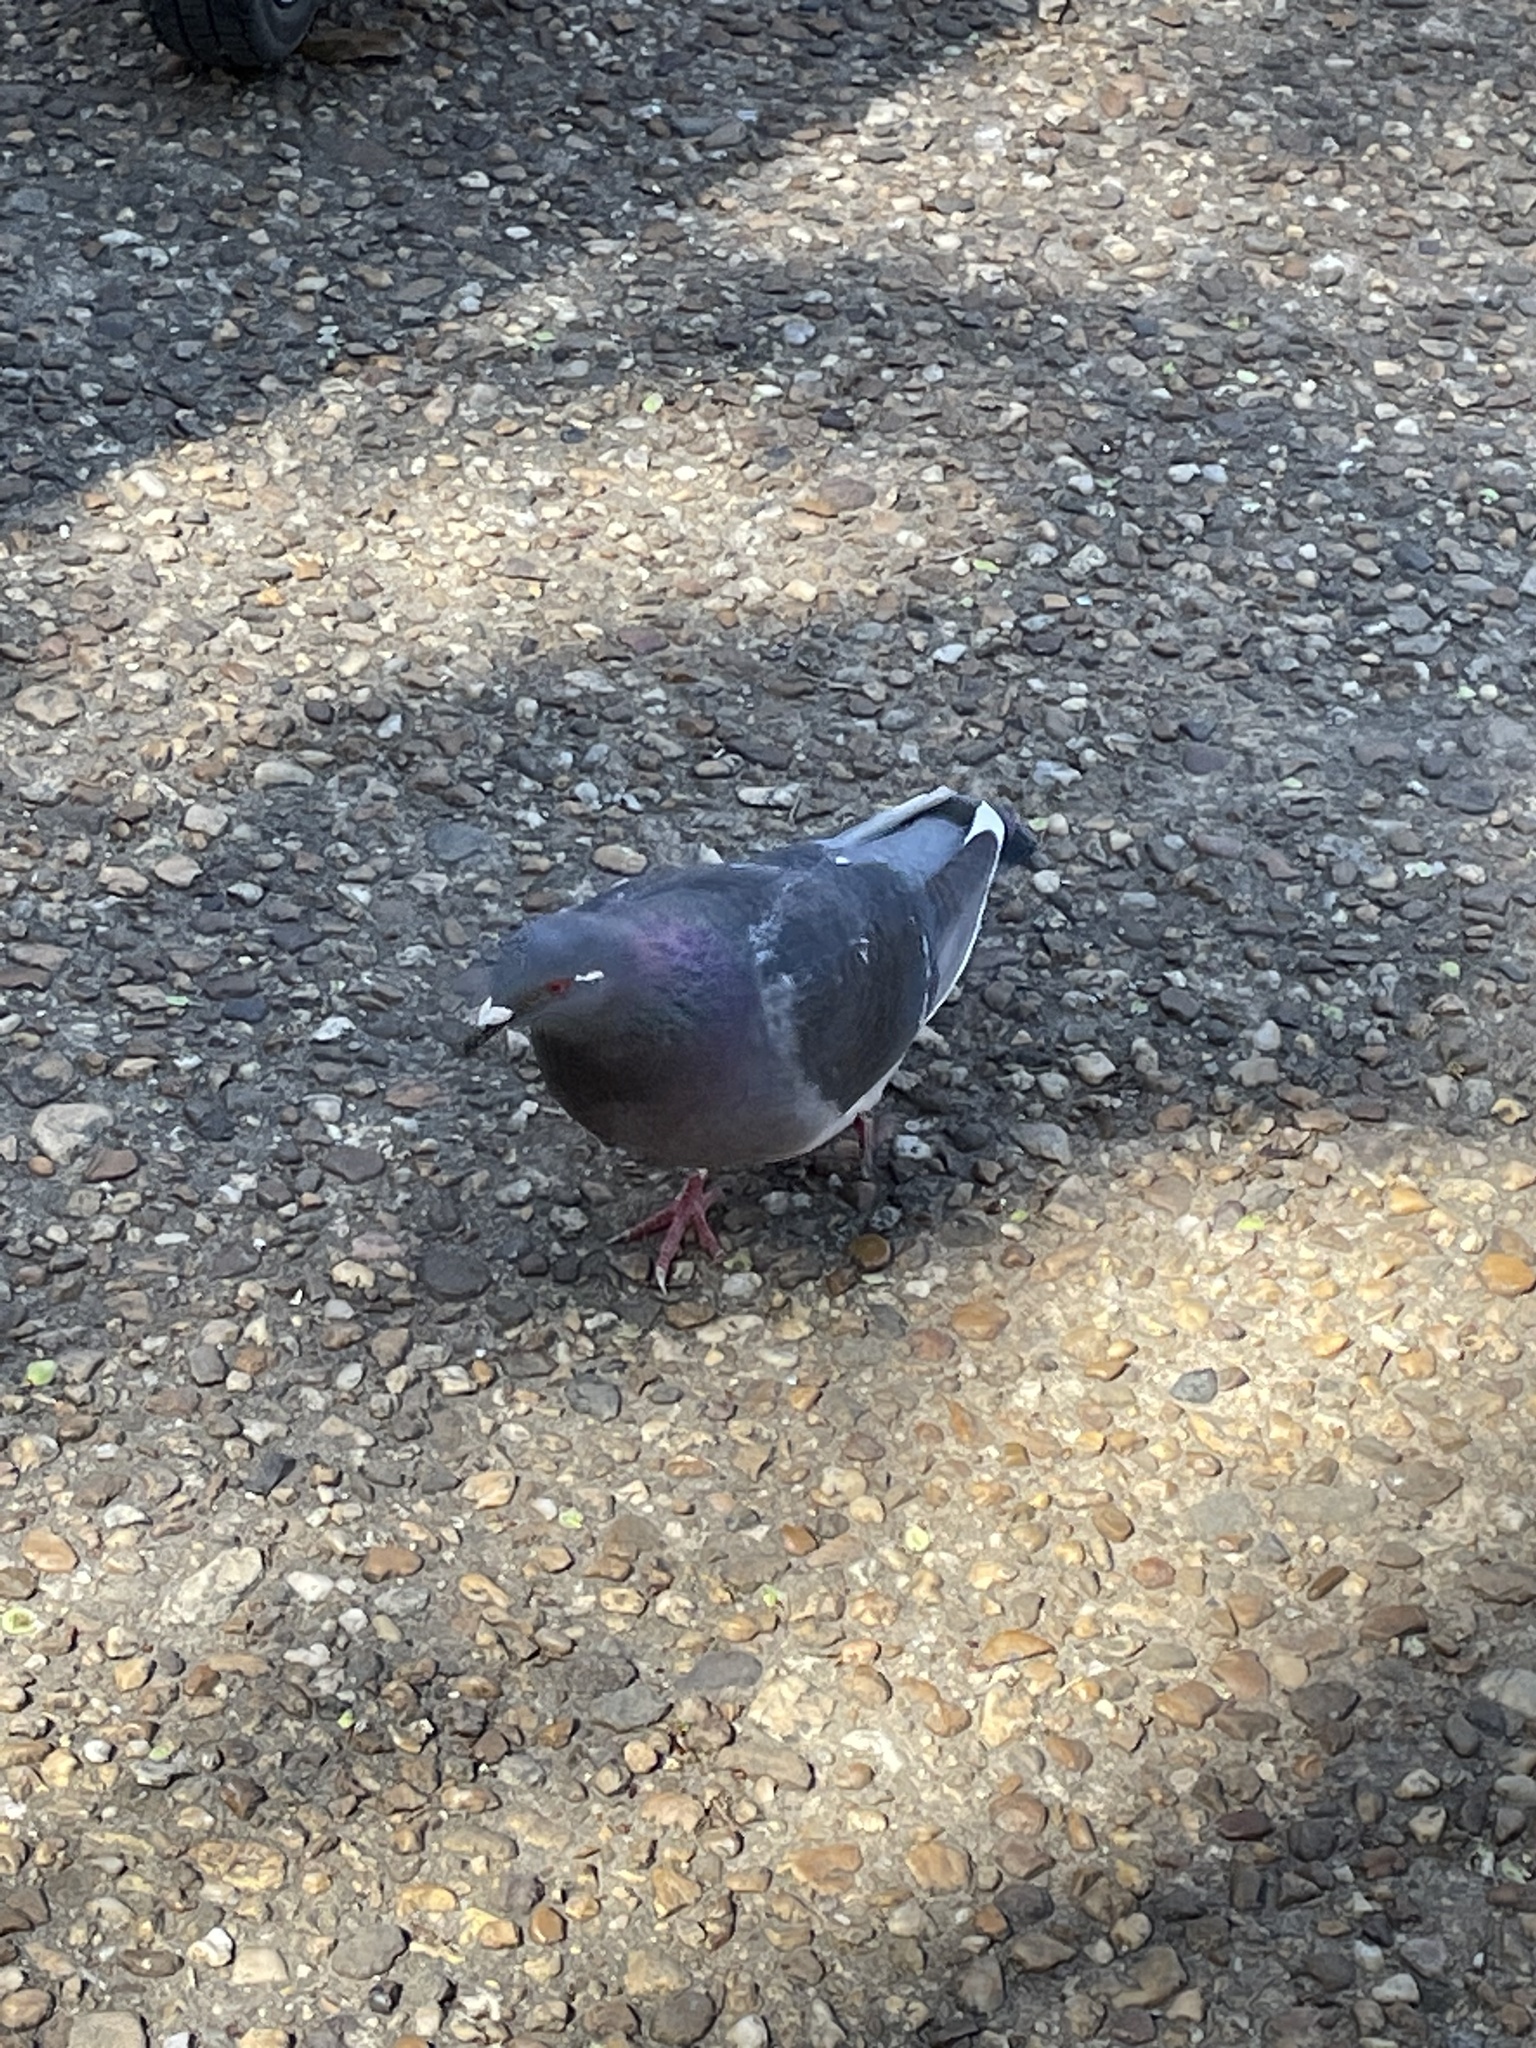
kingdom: Animalia
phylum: Chordata
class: Aves
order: Columbiformes
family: Columbidae
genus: Columba
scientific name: Columba livia
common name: Rock pigeon
